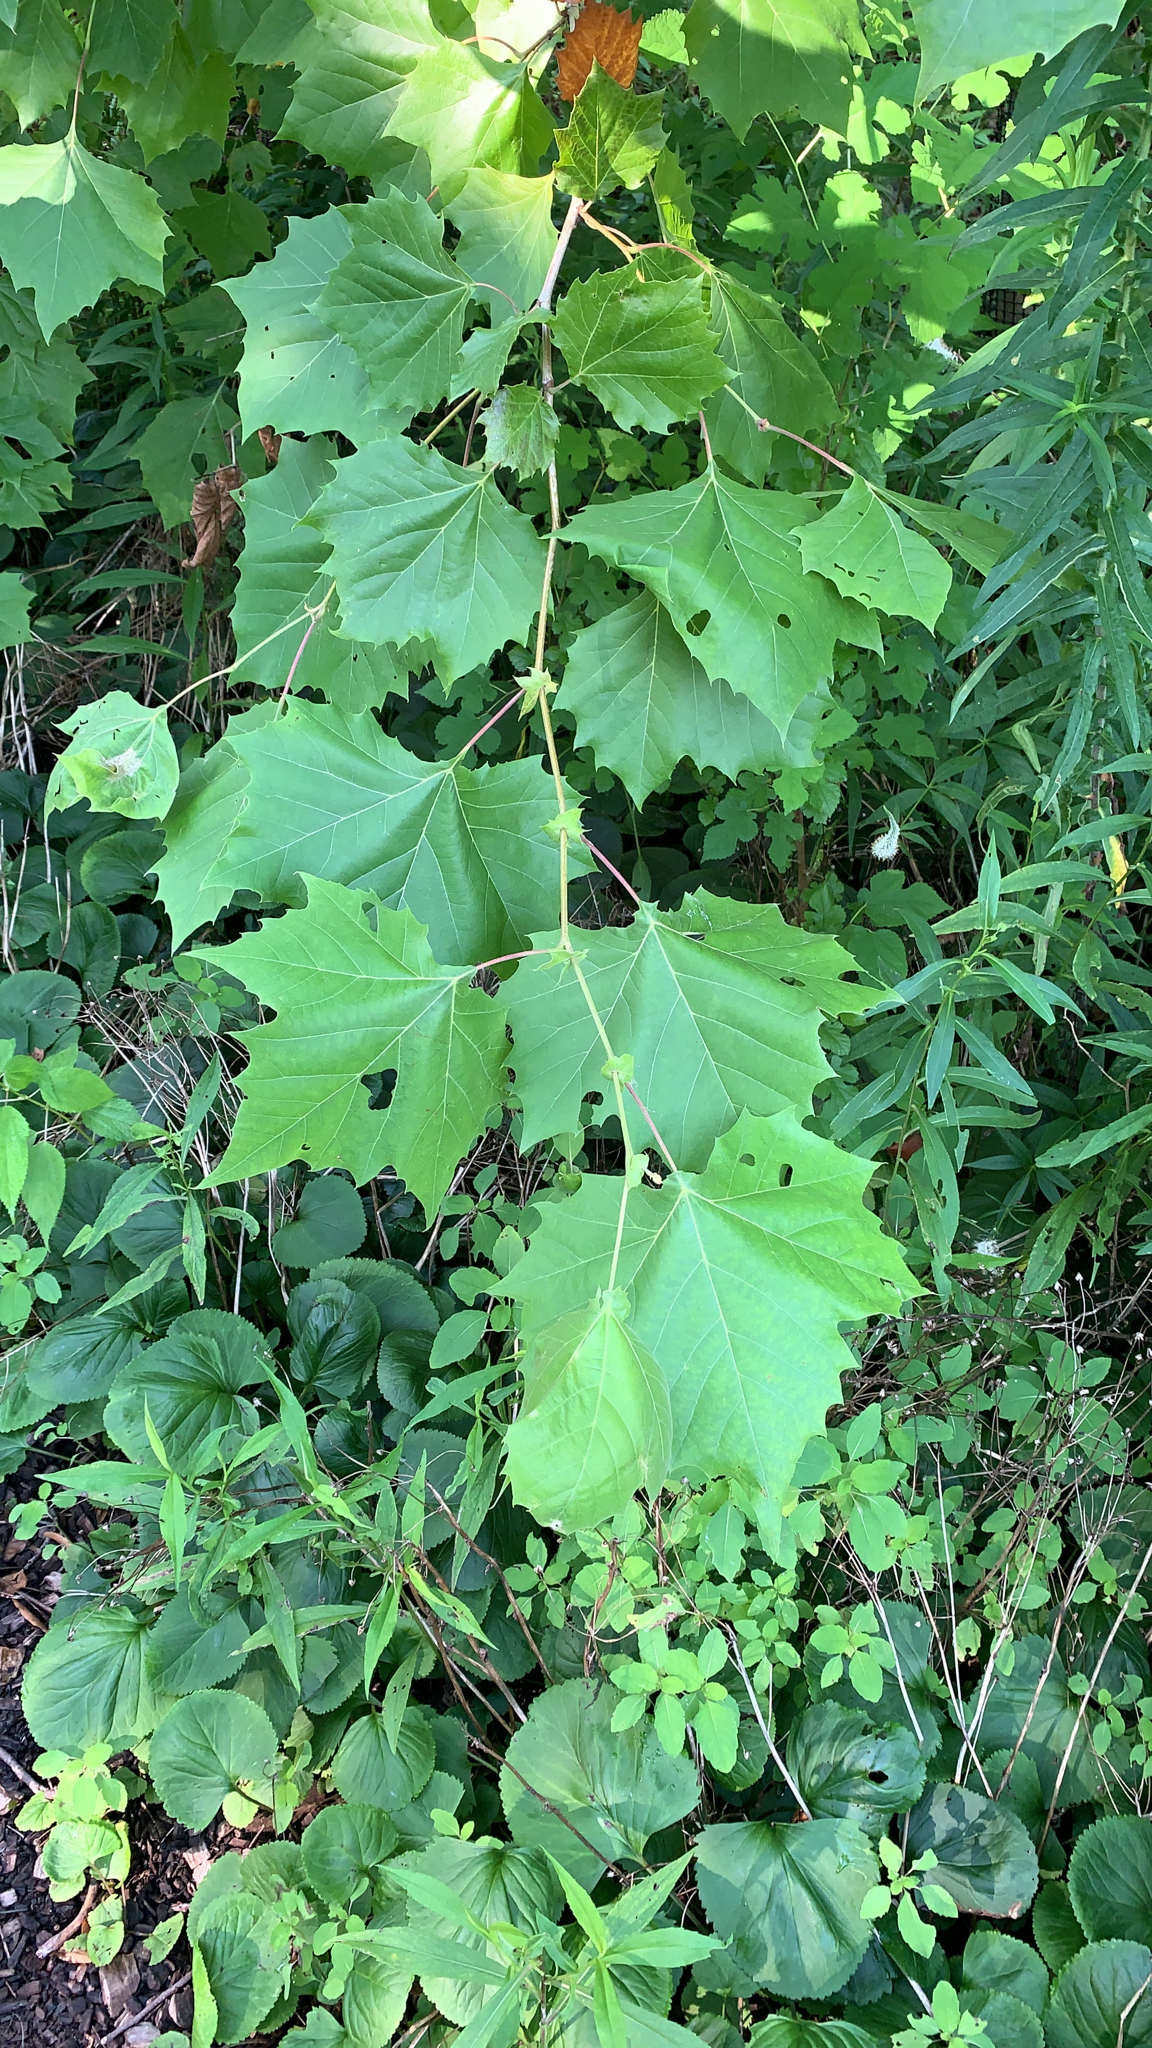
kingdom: Plantae
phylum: Tracheophyta
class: Magnoliopsida
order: Proteales
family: Platanaceae
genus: Platanus
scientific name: Platanus occidentalis
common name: American sycamore
